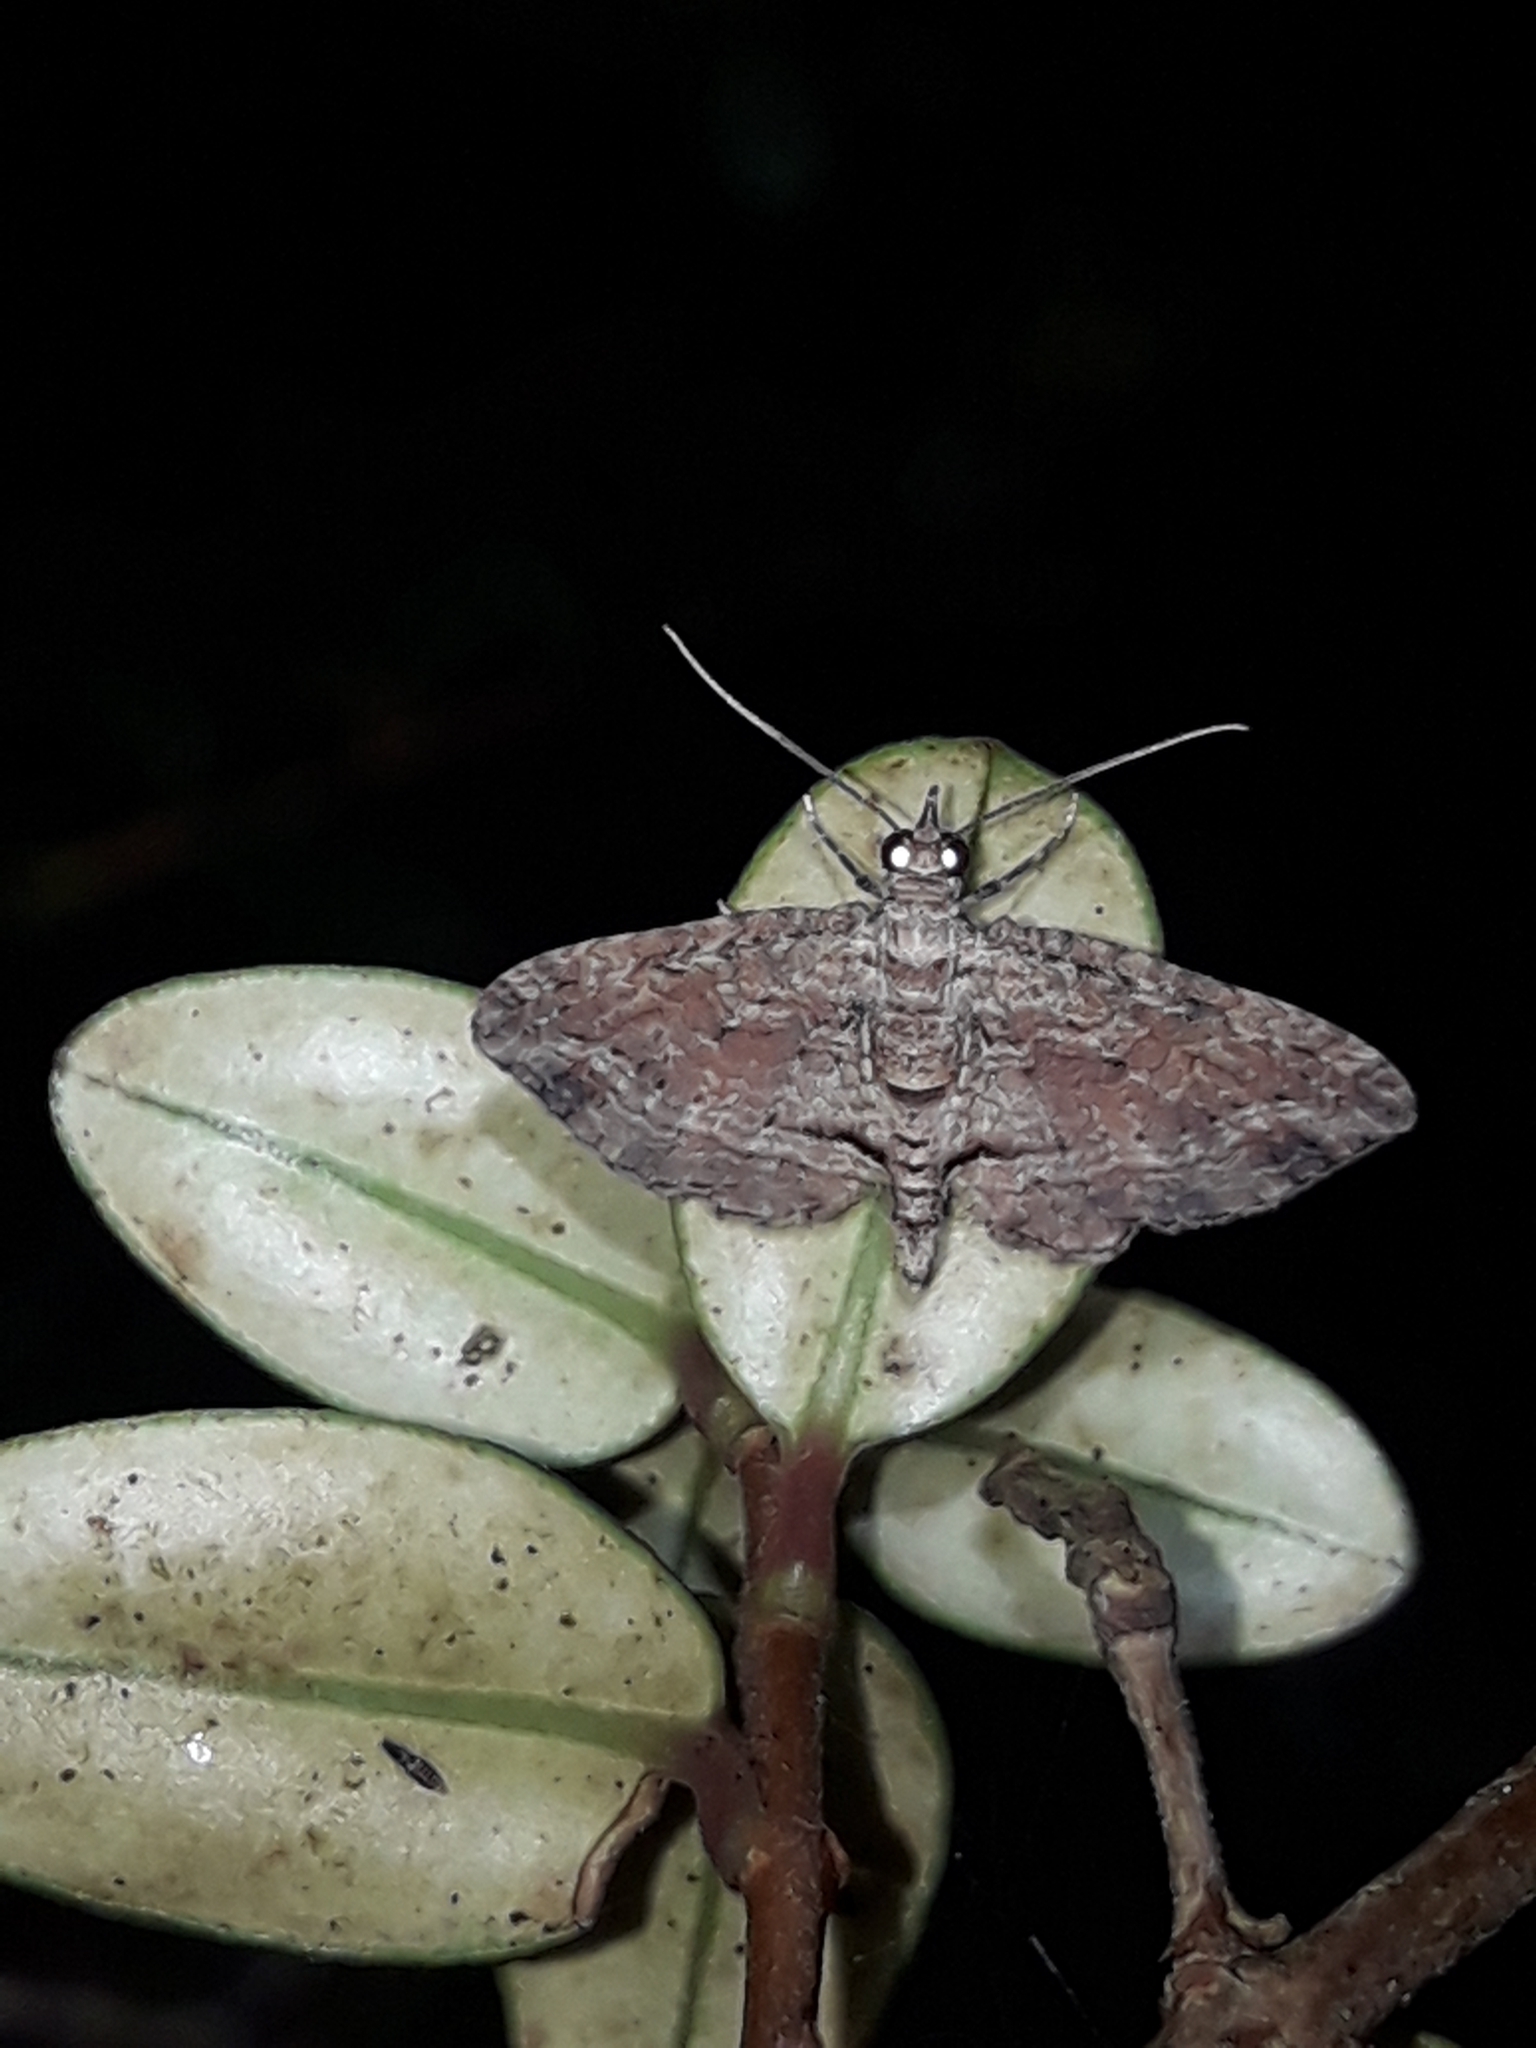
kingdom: Animalia
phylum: Arthropoda
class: Insecta
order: Lepidoptera
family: Geometridae
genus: Chloroclystis
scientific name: Chloroclystis filata
